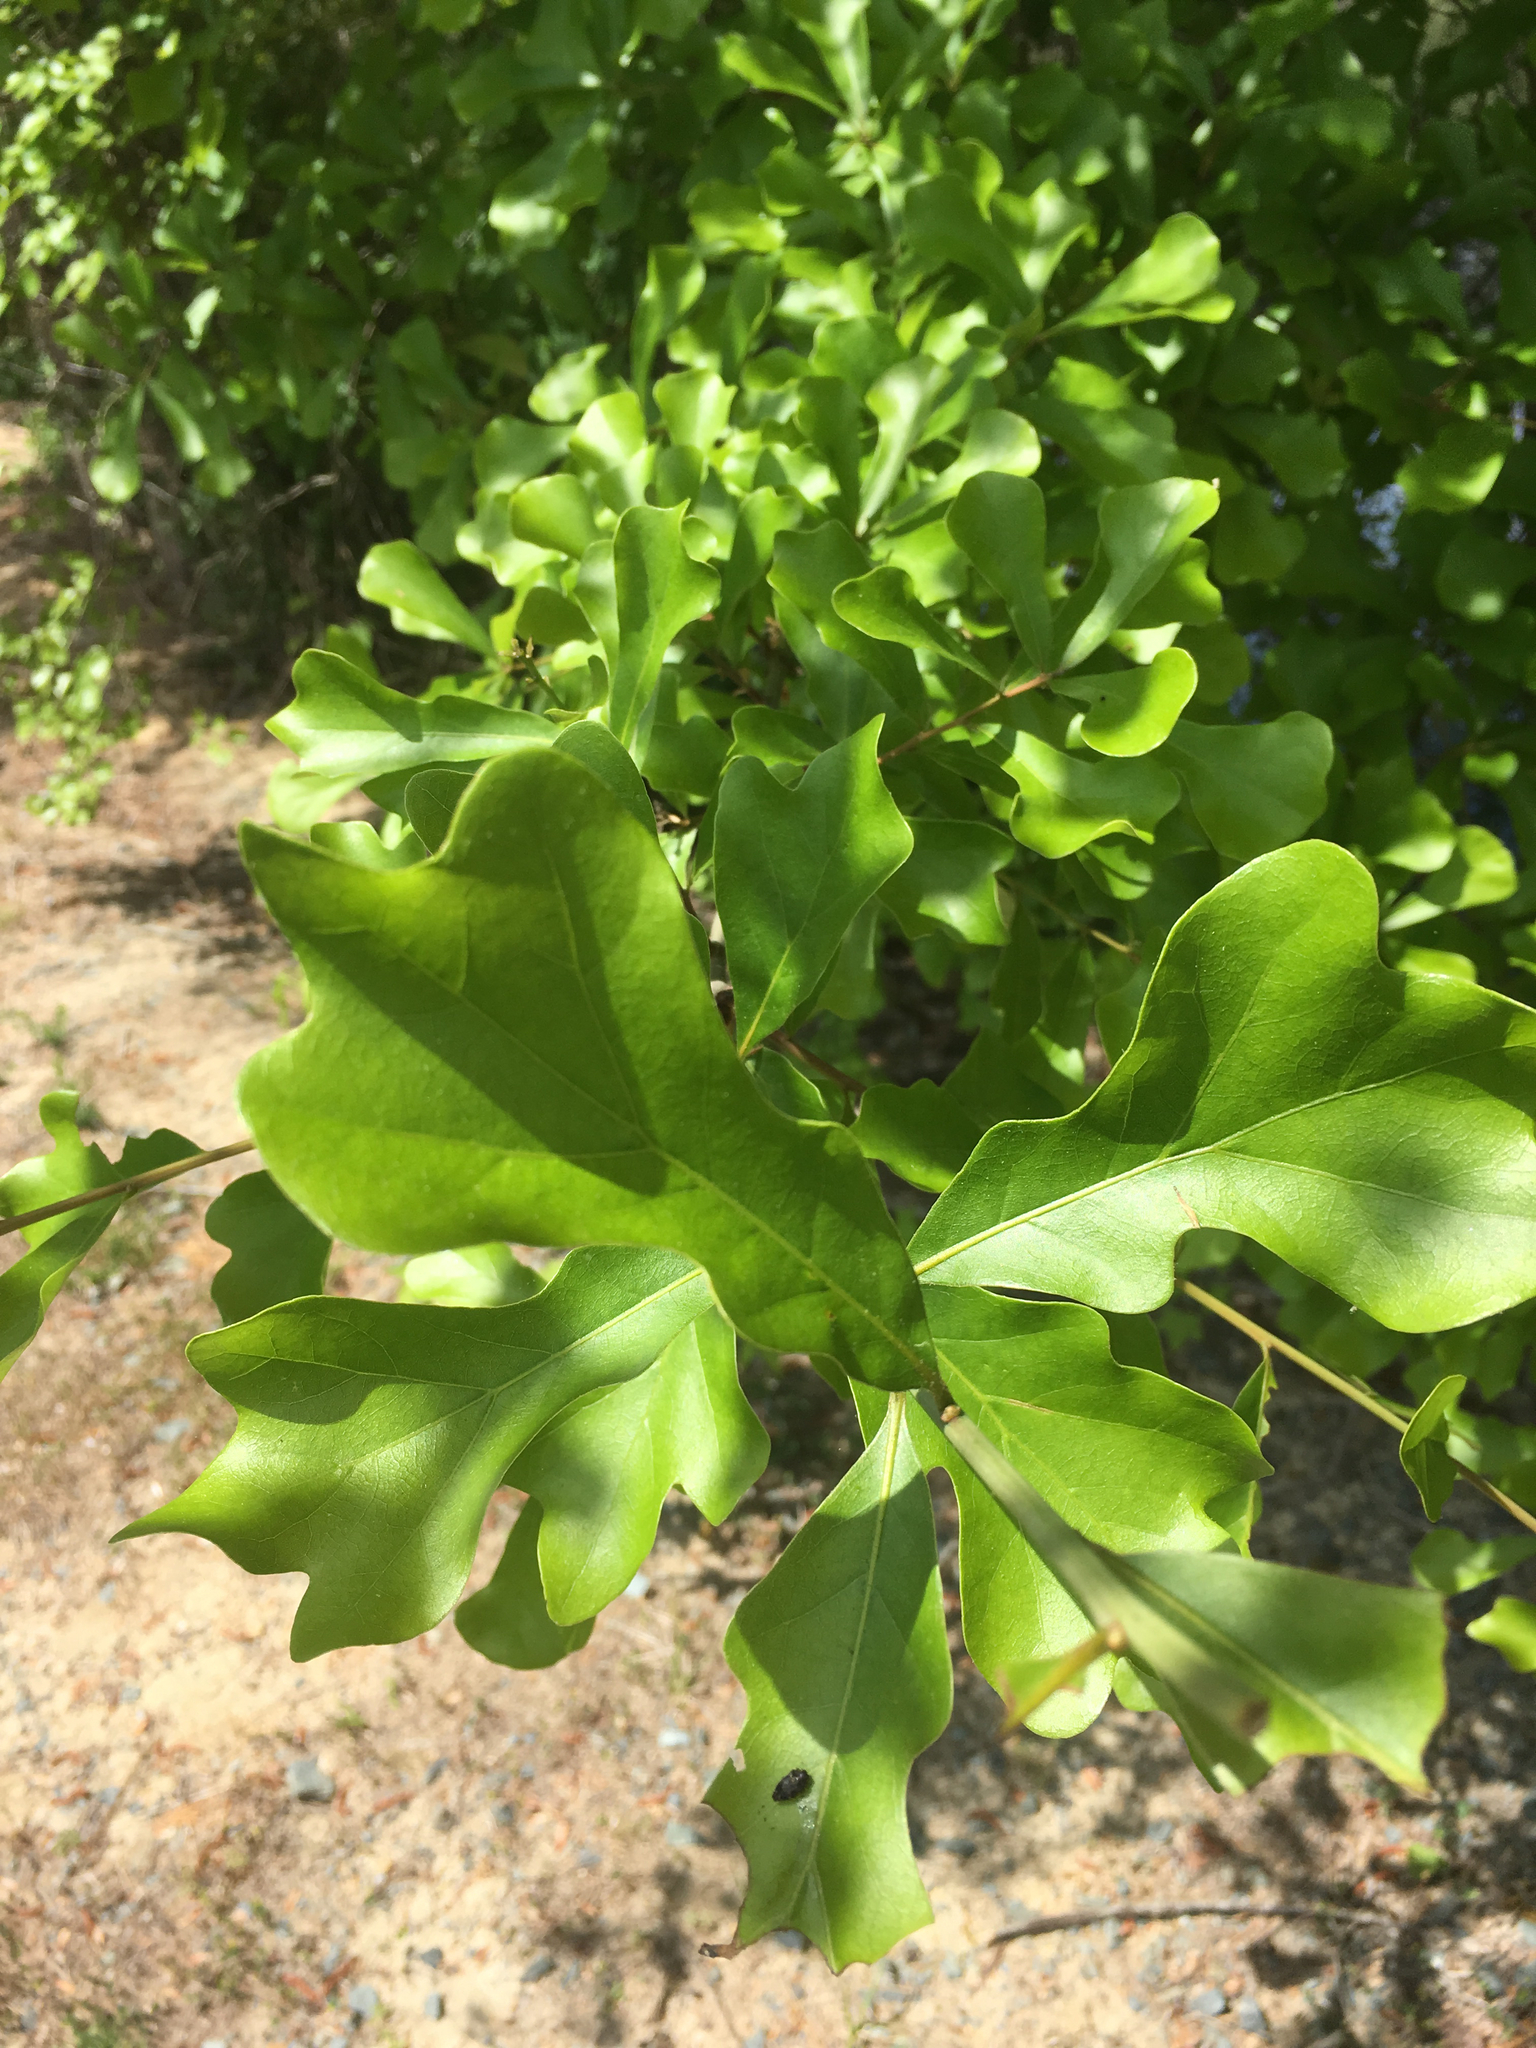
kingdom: Plantae
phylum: Tracheophyta
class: Magnoliopsida
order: Fagales
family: Fagaceae
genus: Quercus
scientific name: Quercus nigra
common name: Water oak
